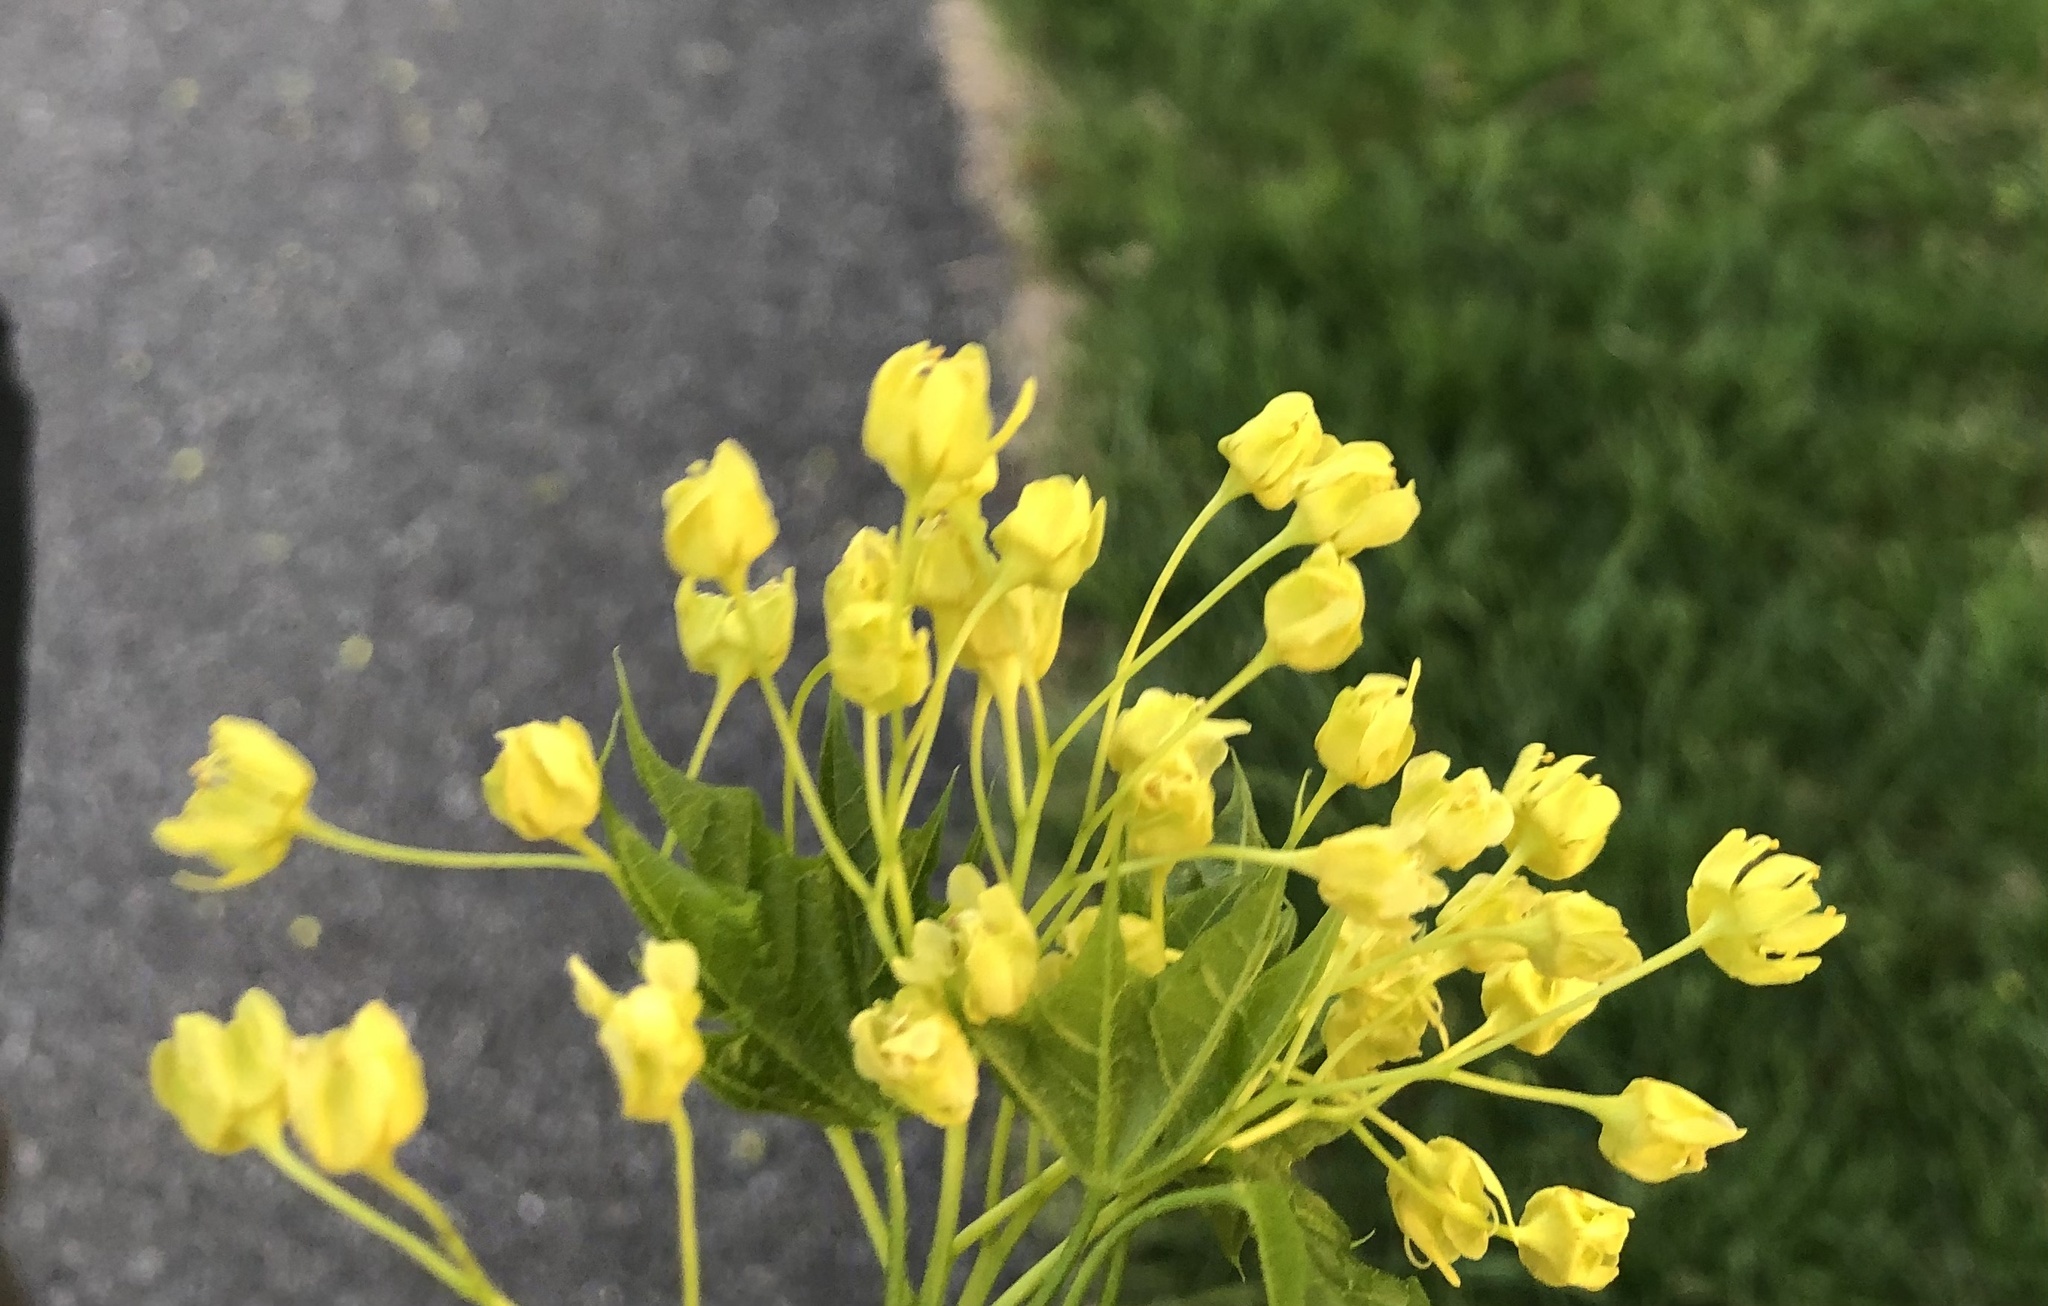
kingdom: Plantae
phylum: Tracheophyta
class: Magnoliopsida
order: Sapindales
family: Sapindaceae
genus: Acer
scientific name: Acer platanoides
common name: Norway maple
